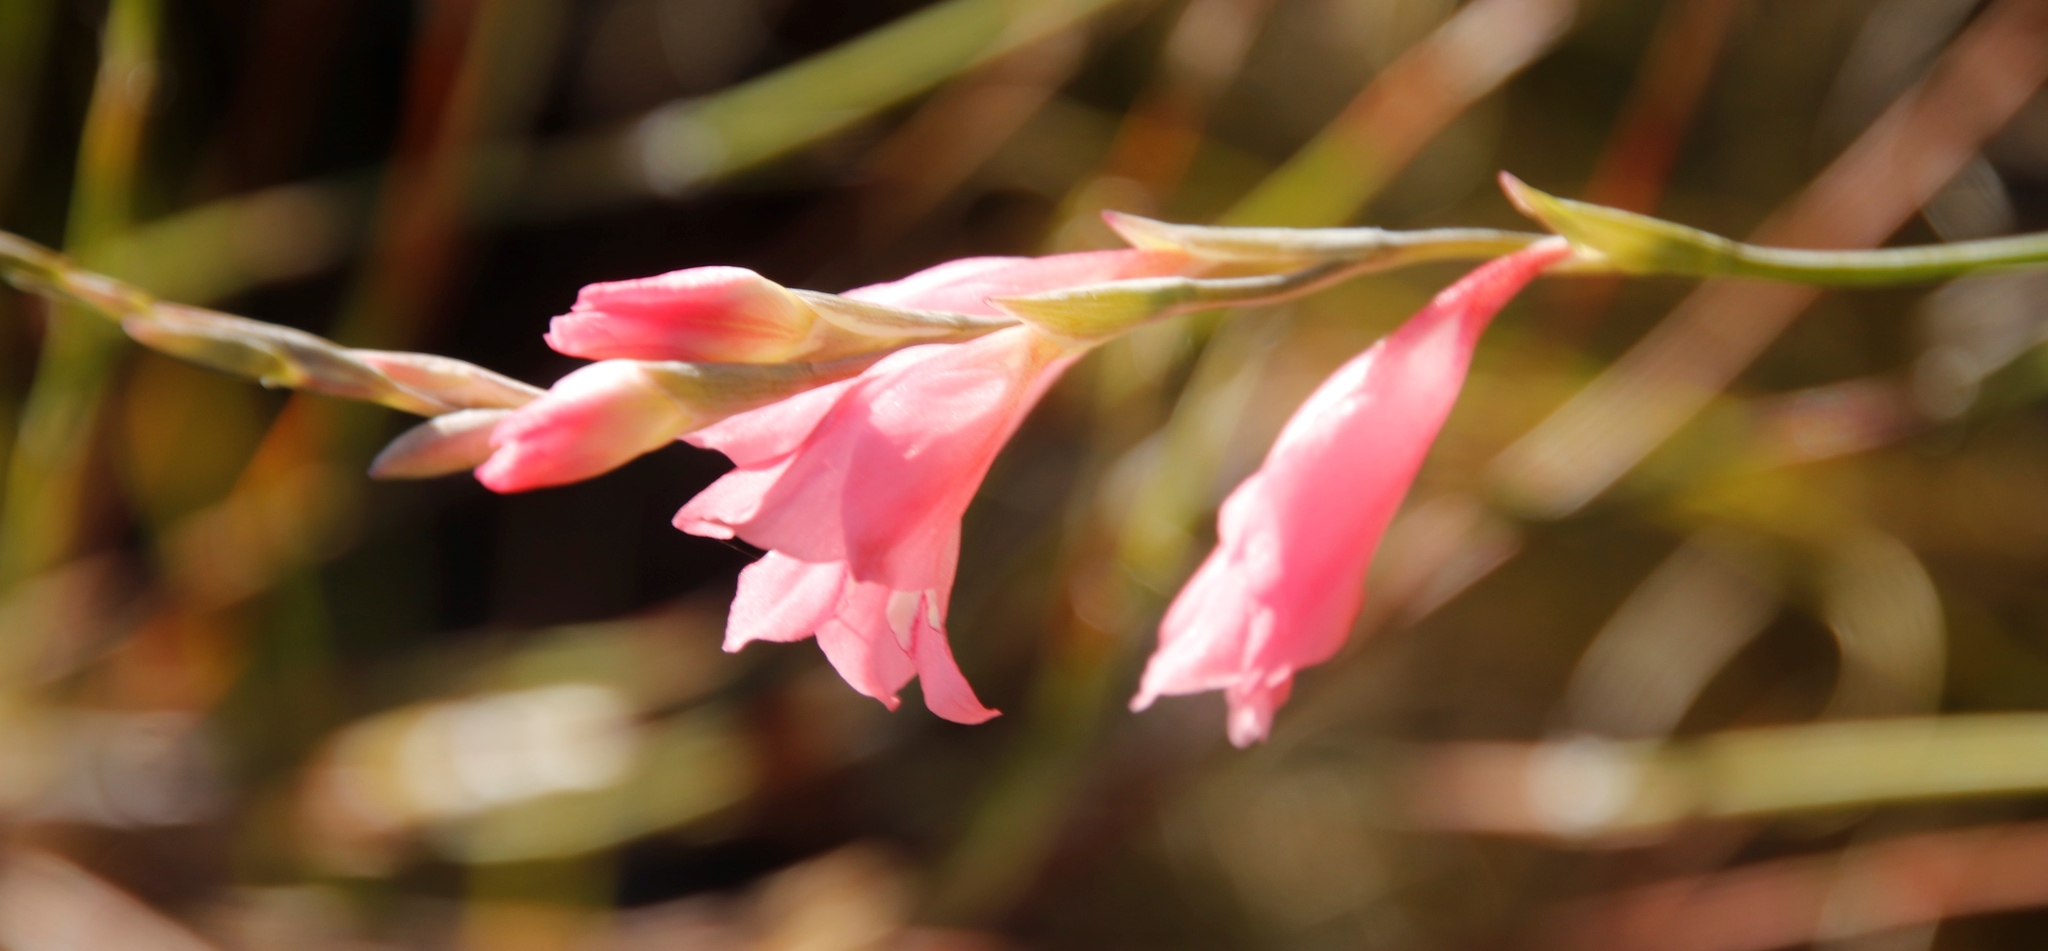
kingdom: Plantae
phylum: Tracheophyta
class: Liliopsida
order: Asparagales
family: Iridaceae
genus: Gladiolus
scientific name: Gladiolus brevifolius
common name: March pypie
